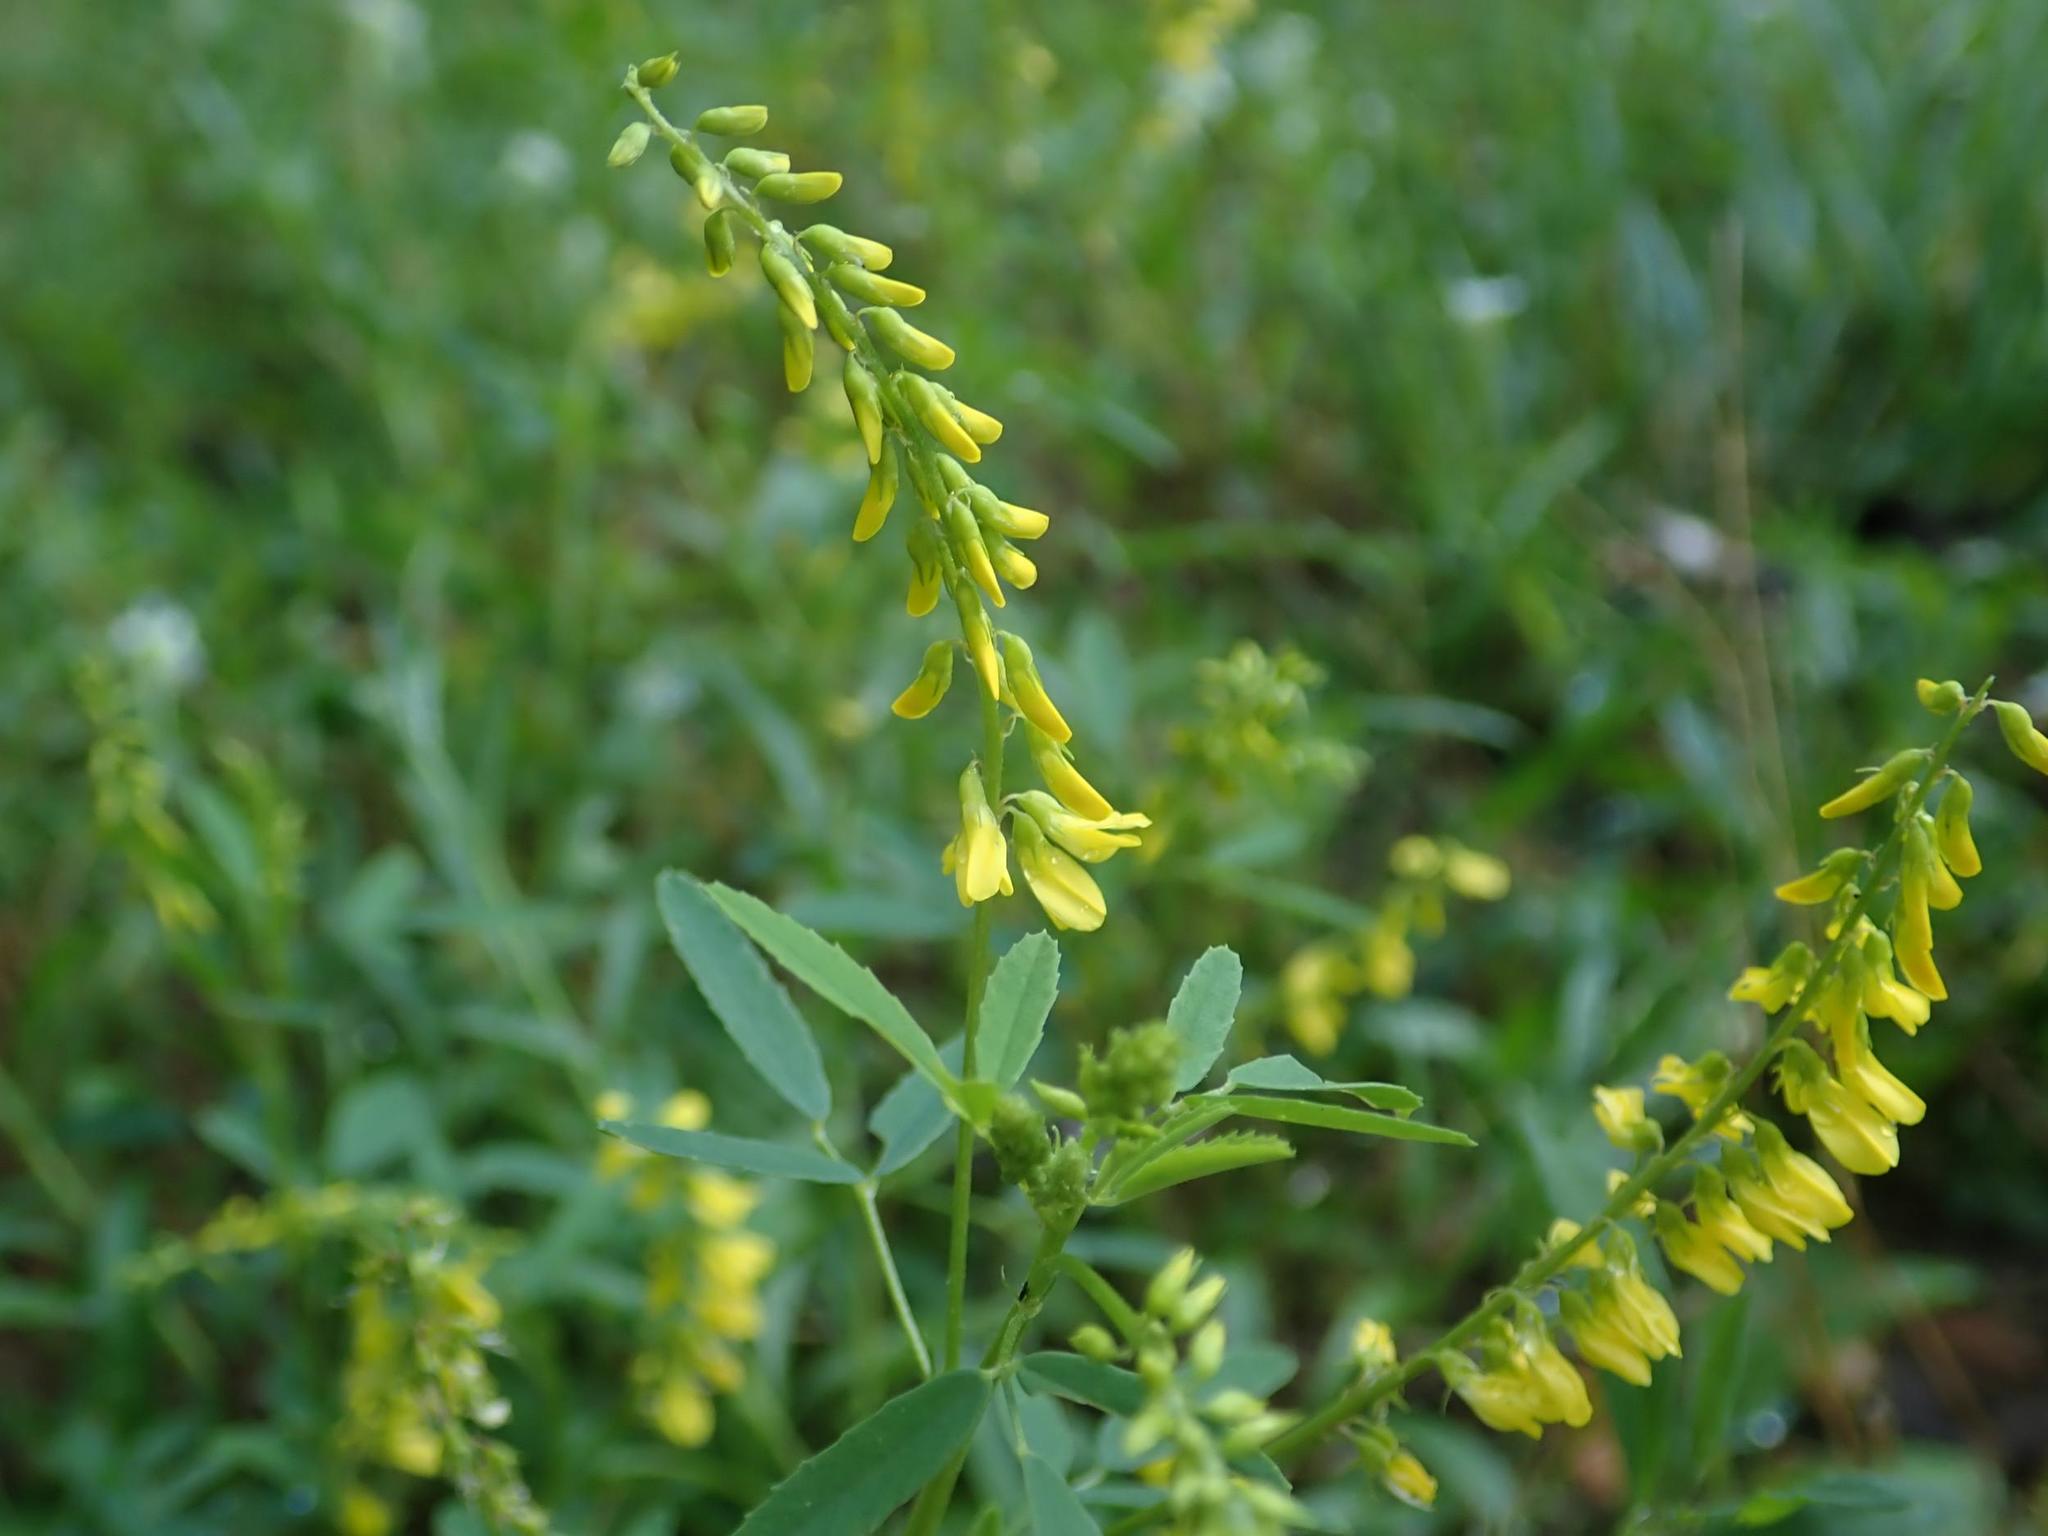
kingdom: Plantae
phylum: Tracheophyta
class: Magnoliopsida
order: Fabales
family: Fabaceae
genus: Melilotus
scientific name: Melilotus officinalis
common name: Sweetclover
